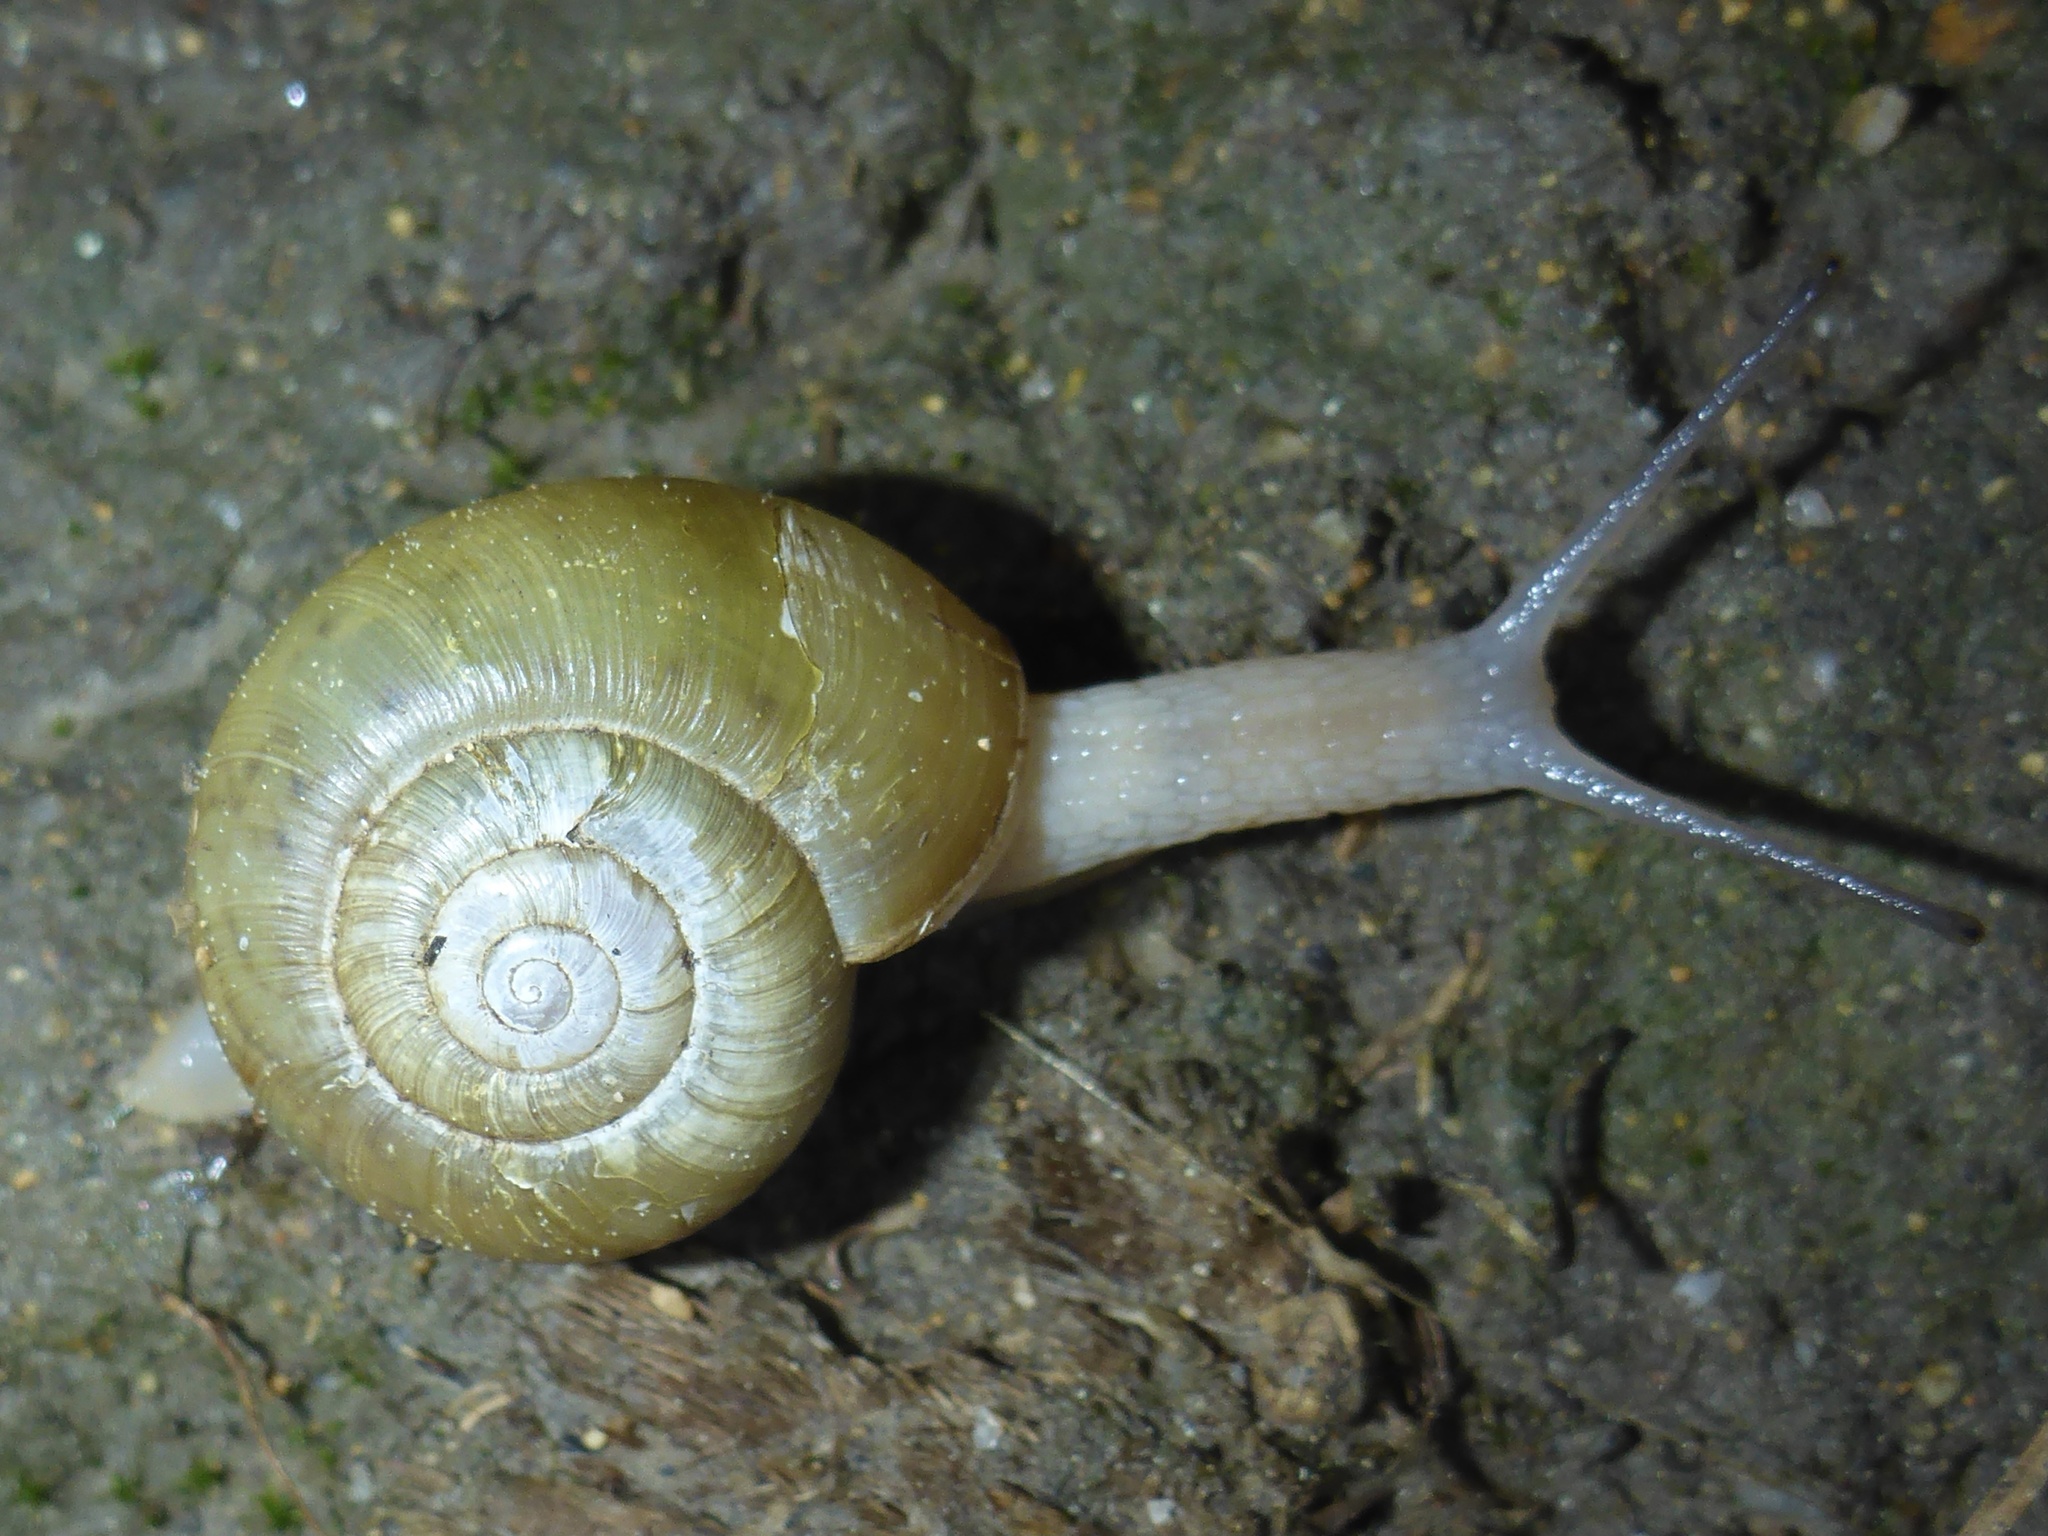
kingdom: Animalia
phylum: Mollusca
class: Gastropoda
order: Stylommatophora
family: Haplotrematidae
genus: Haplotrema
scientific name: Haplotrema minimum
